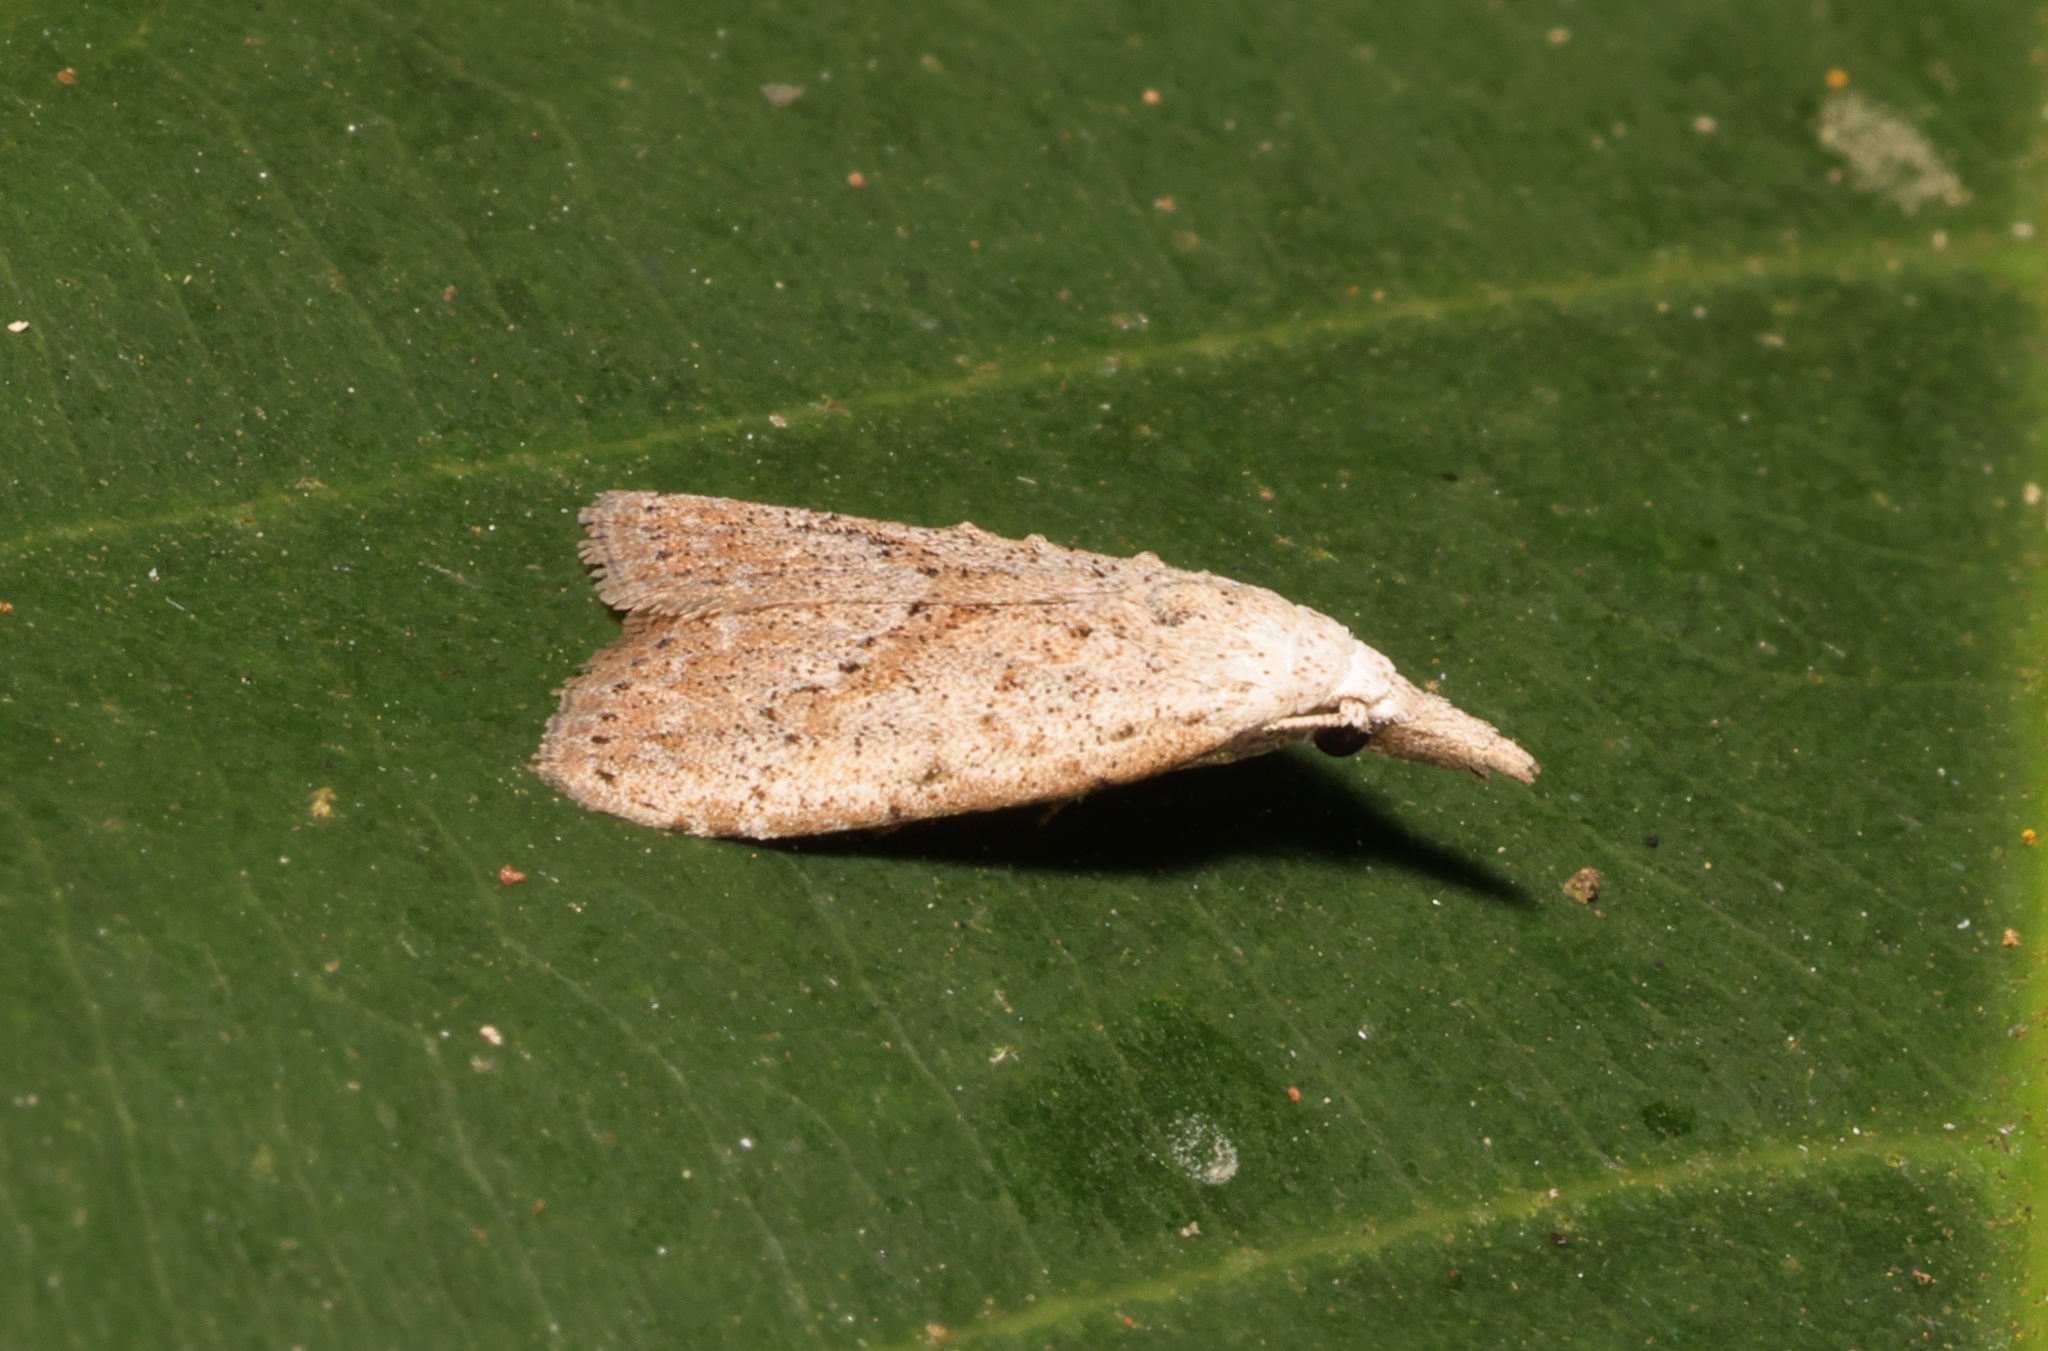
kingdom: Animalia
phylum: Arthropoda
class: Insecta
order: Lepidoptera
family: Nolidae
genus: Meganola
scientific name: Meganola brunellus
